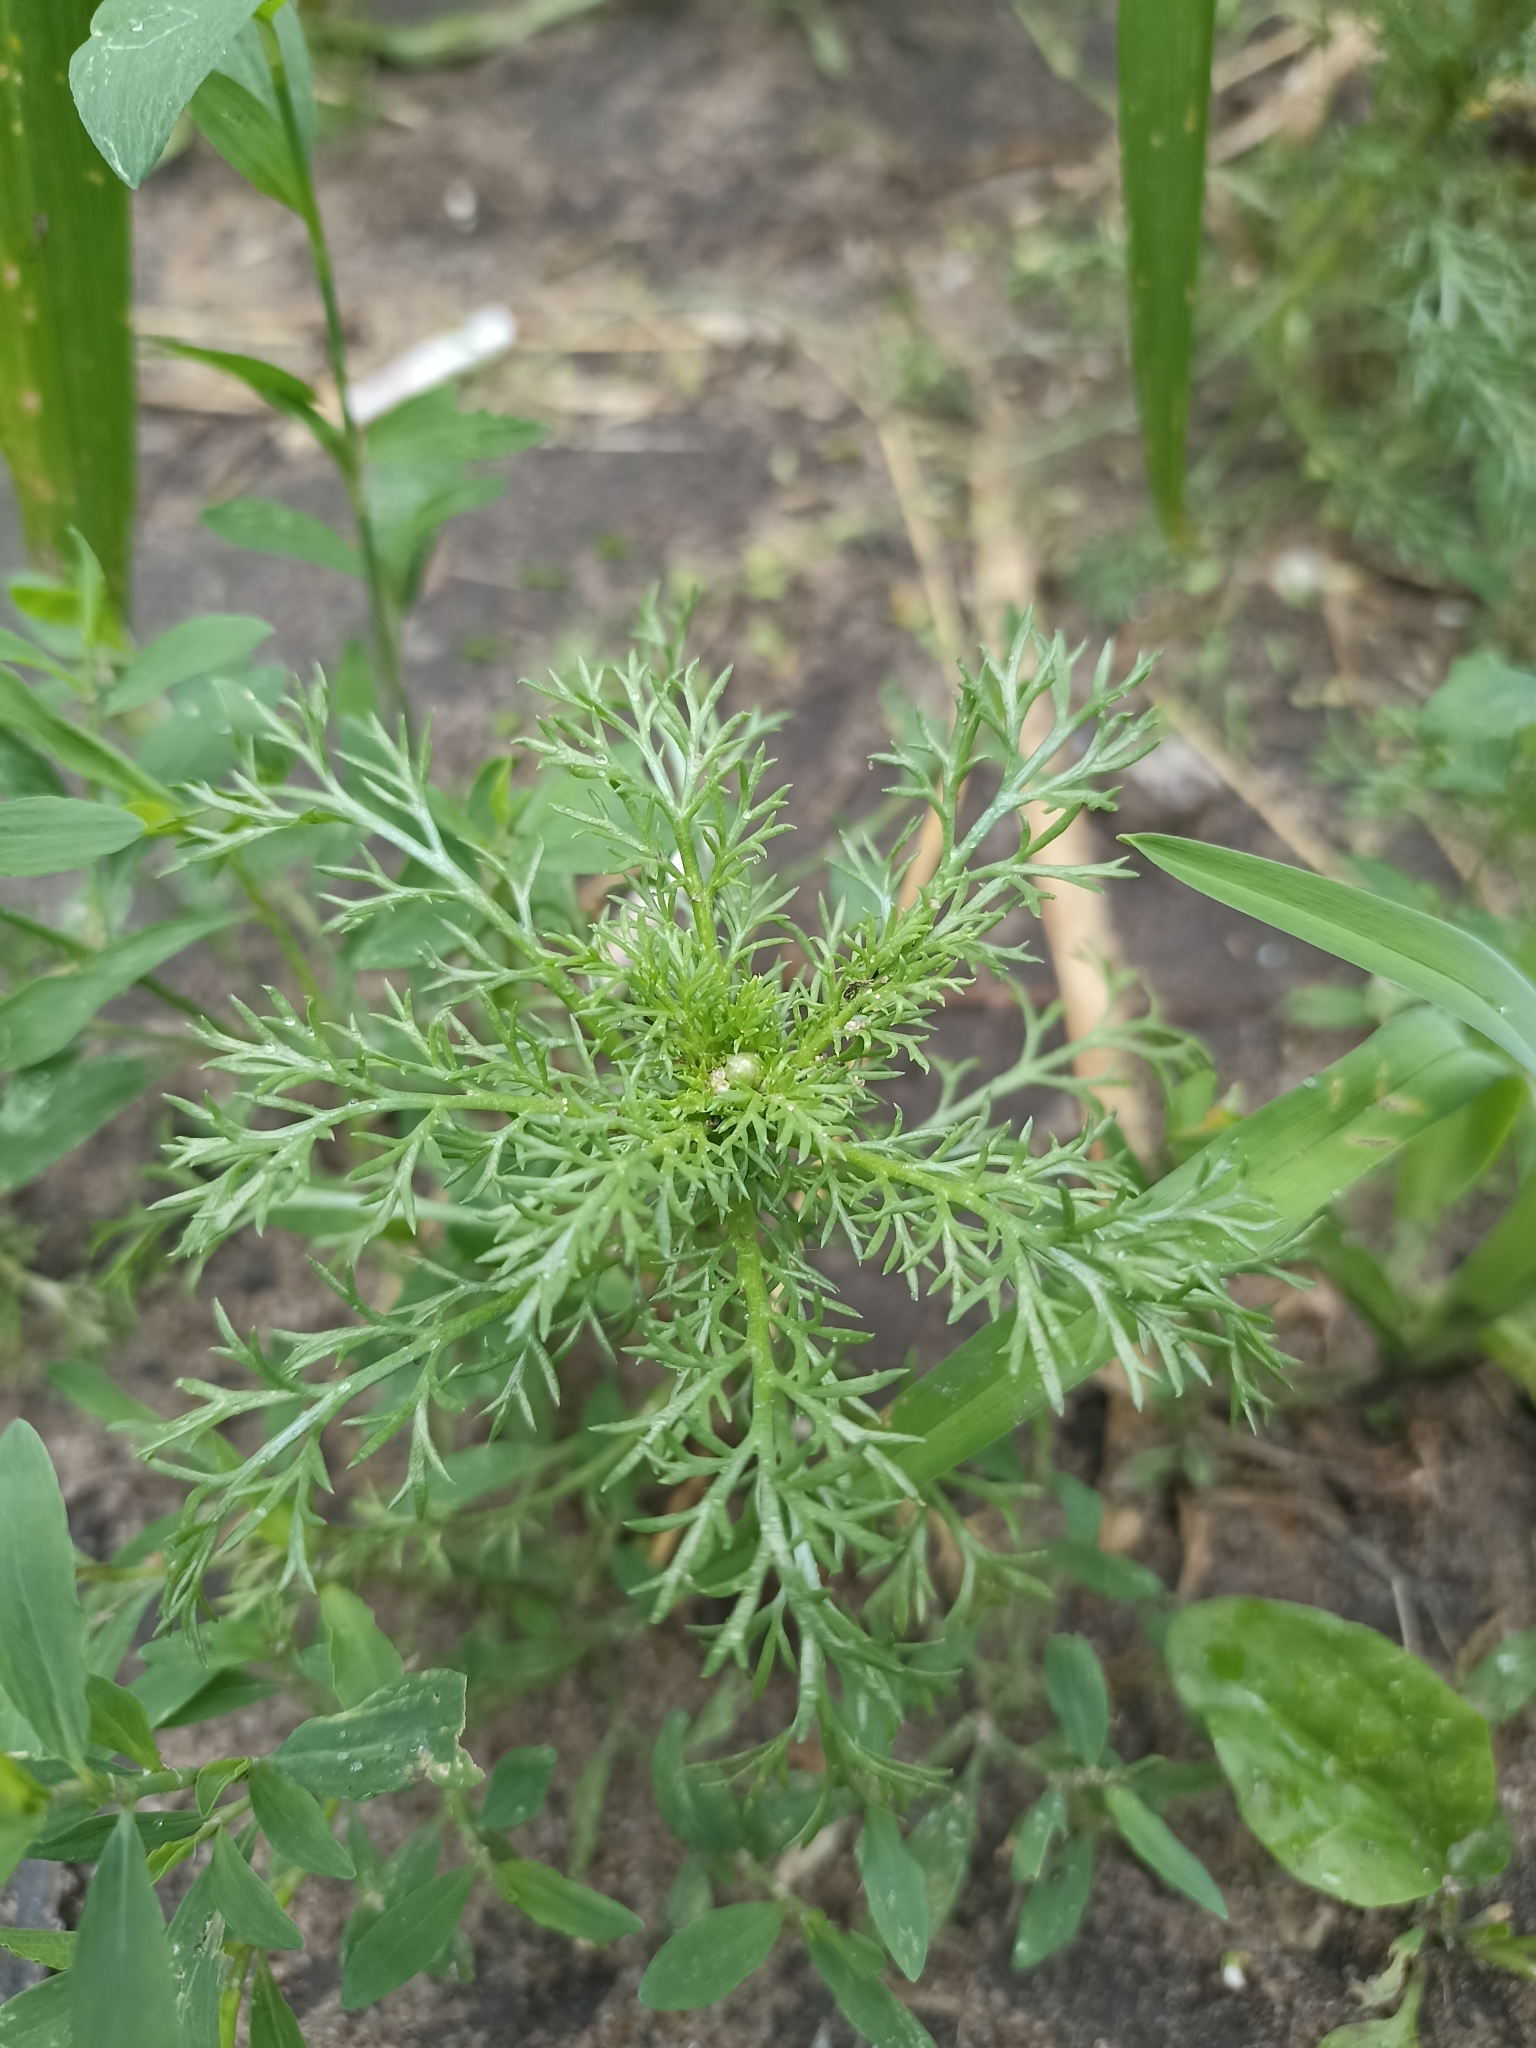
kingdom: Plantae
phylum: Tracheophyta
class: Magnoliopsida
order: Asterales
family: Asteraceae
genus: Matricaria
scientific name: Matricaria discoidea
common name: Disc mayweed
